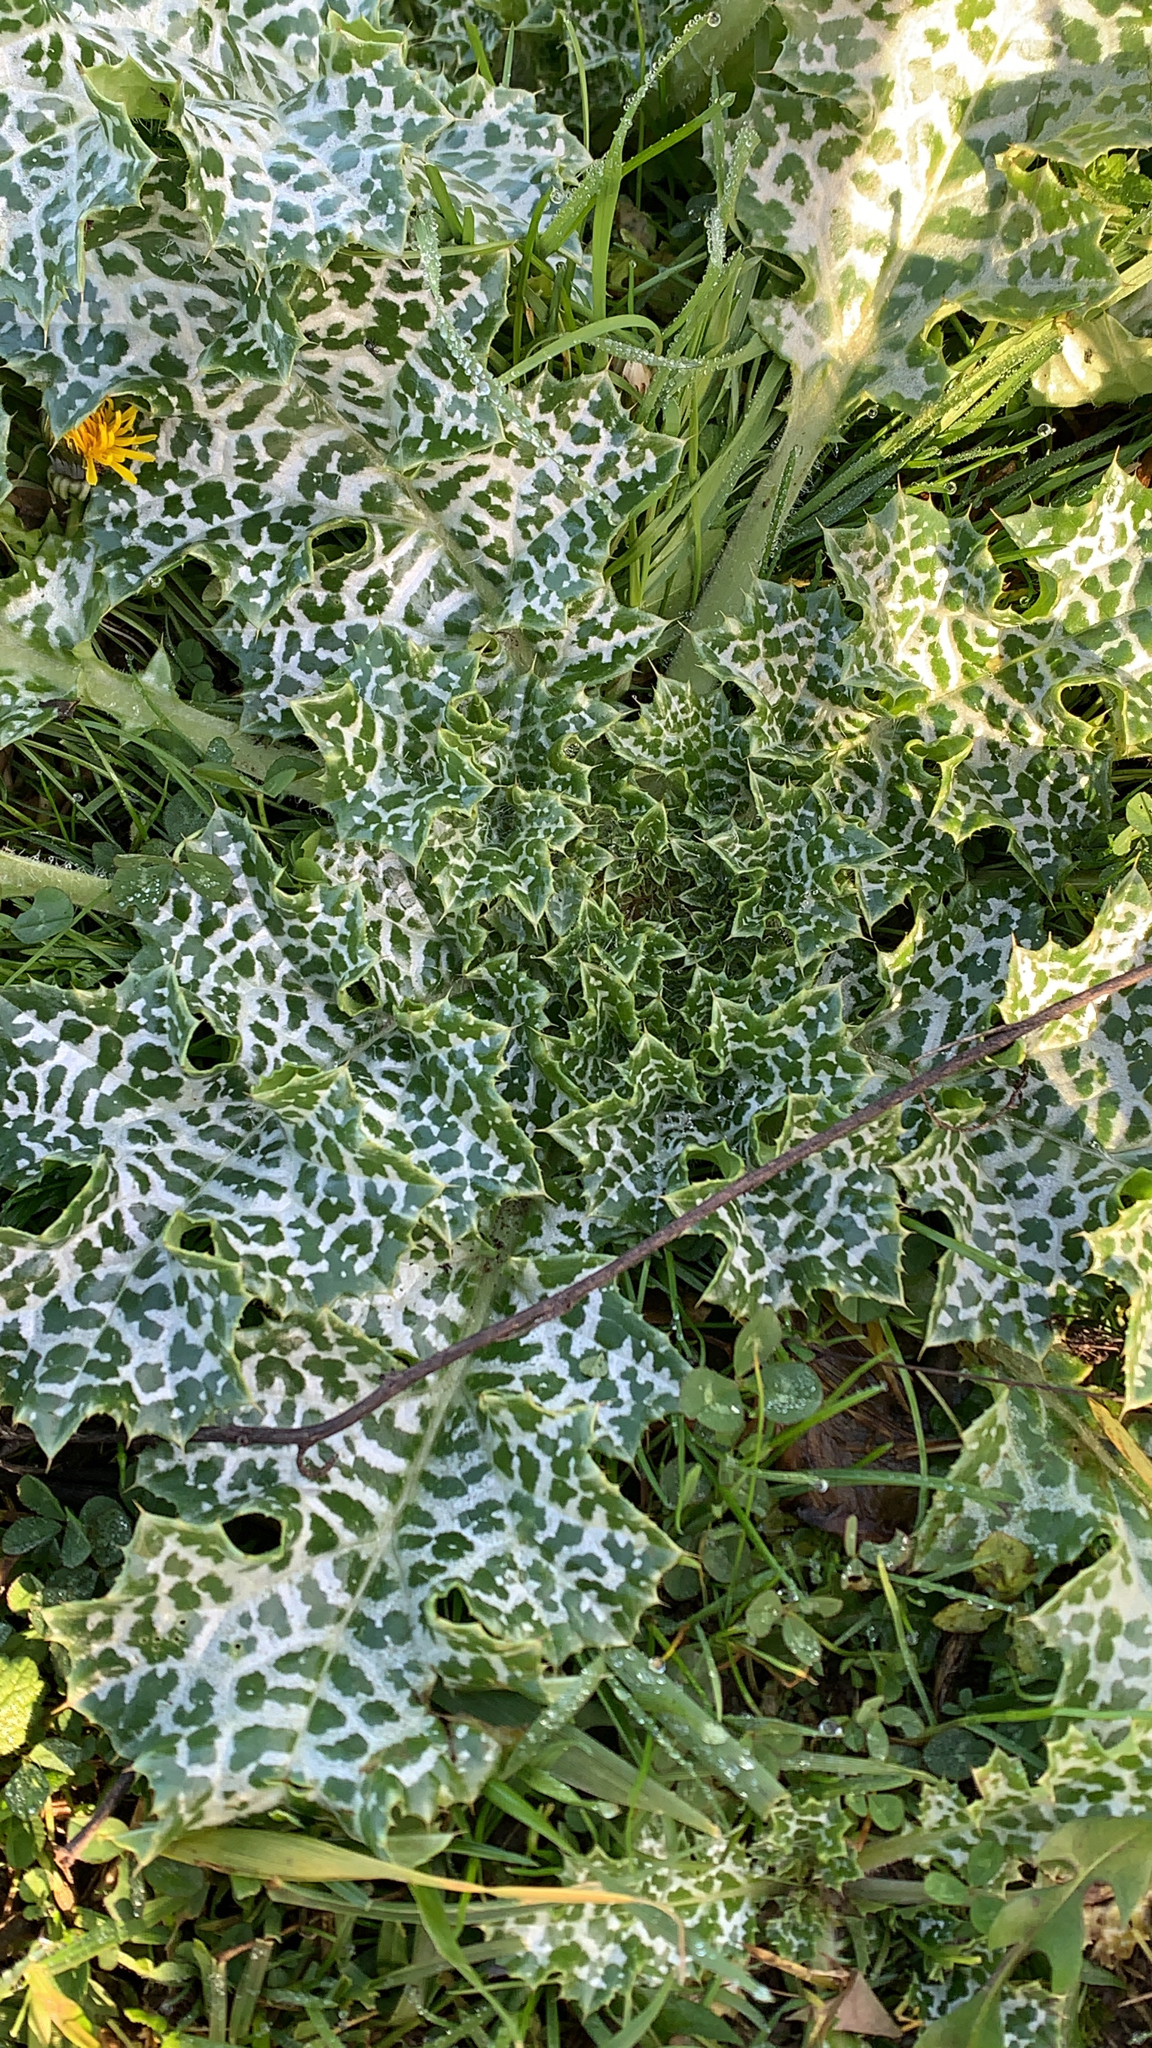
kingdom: Plantae
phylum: Tracheophyta
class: Magnoliopsida
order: Asterales
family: Asteraceae
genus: Silybum
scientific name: Silybum marianum
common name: Milk thistle
